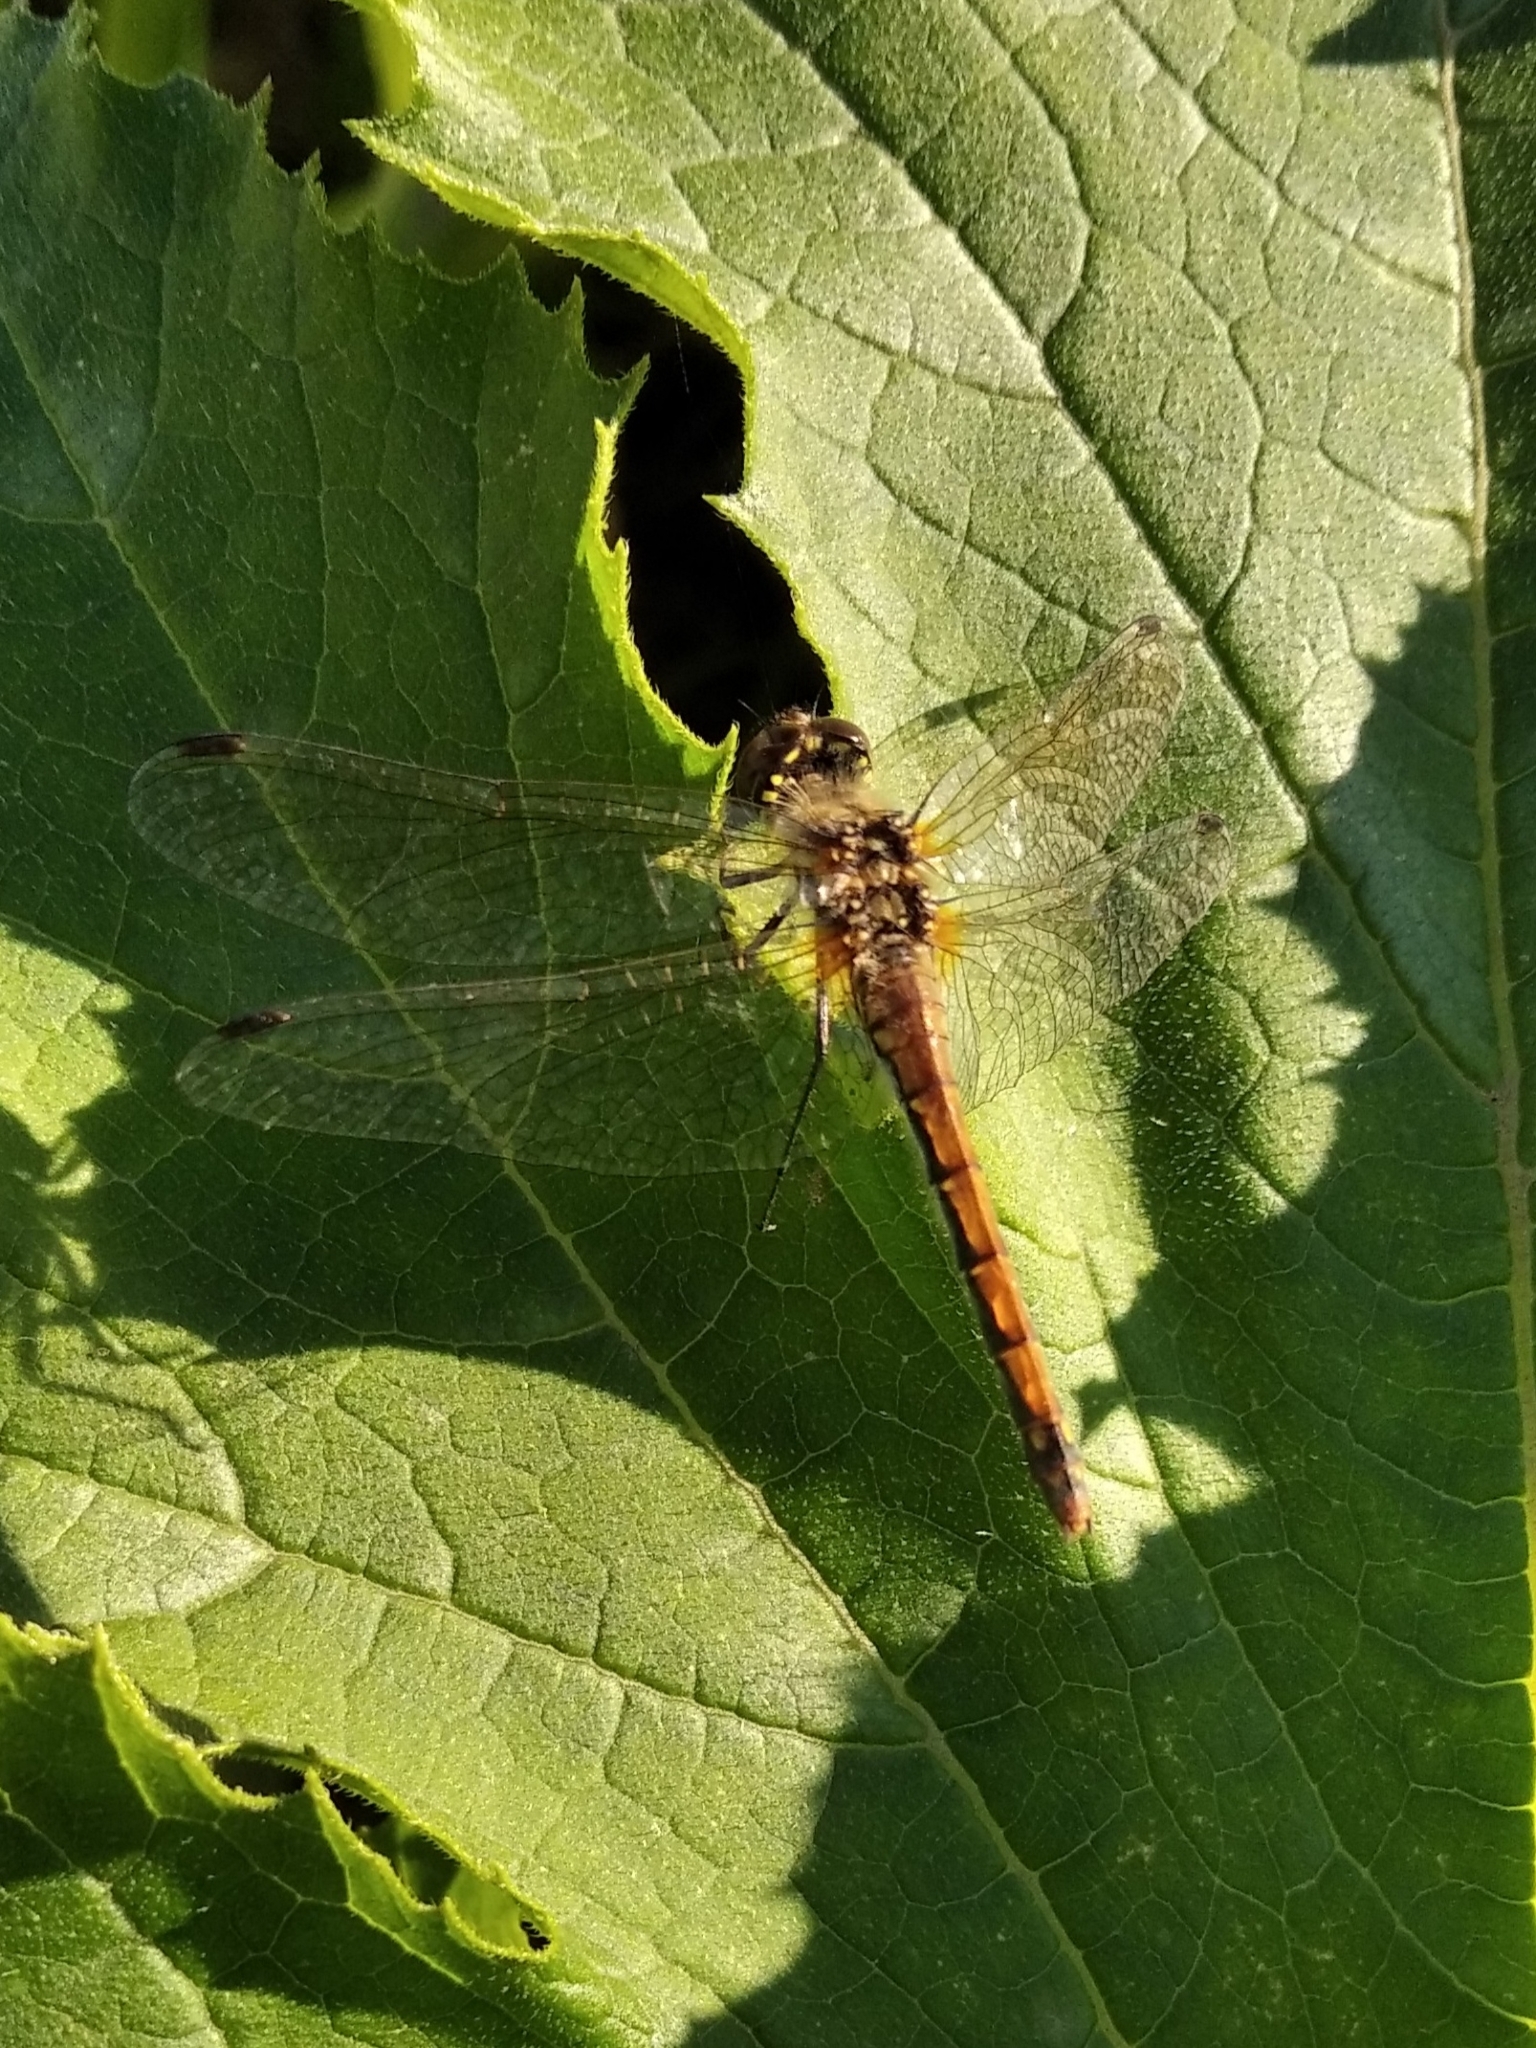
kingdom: Animalia
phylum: Arthropoda
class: Insecta
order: Odonata
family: Libellulidae
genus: Sympetrum
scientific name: Sympetrum danae
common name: Black darter
